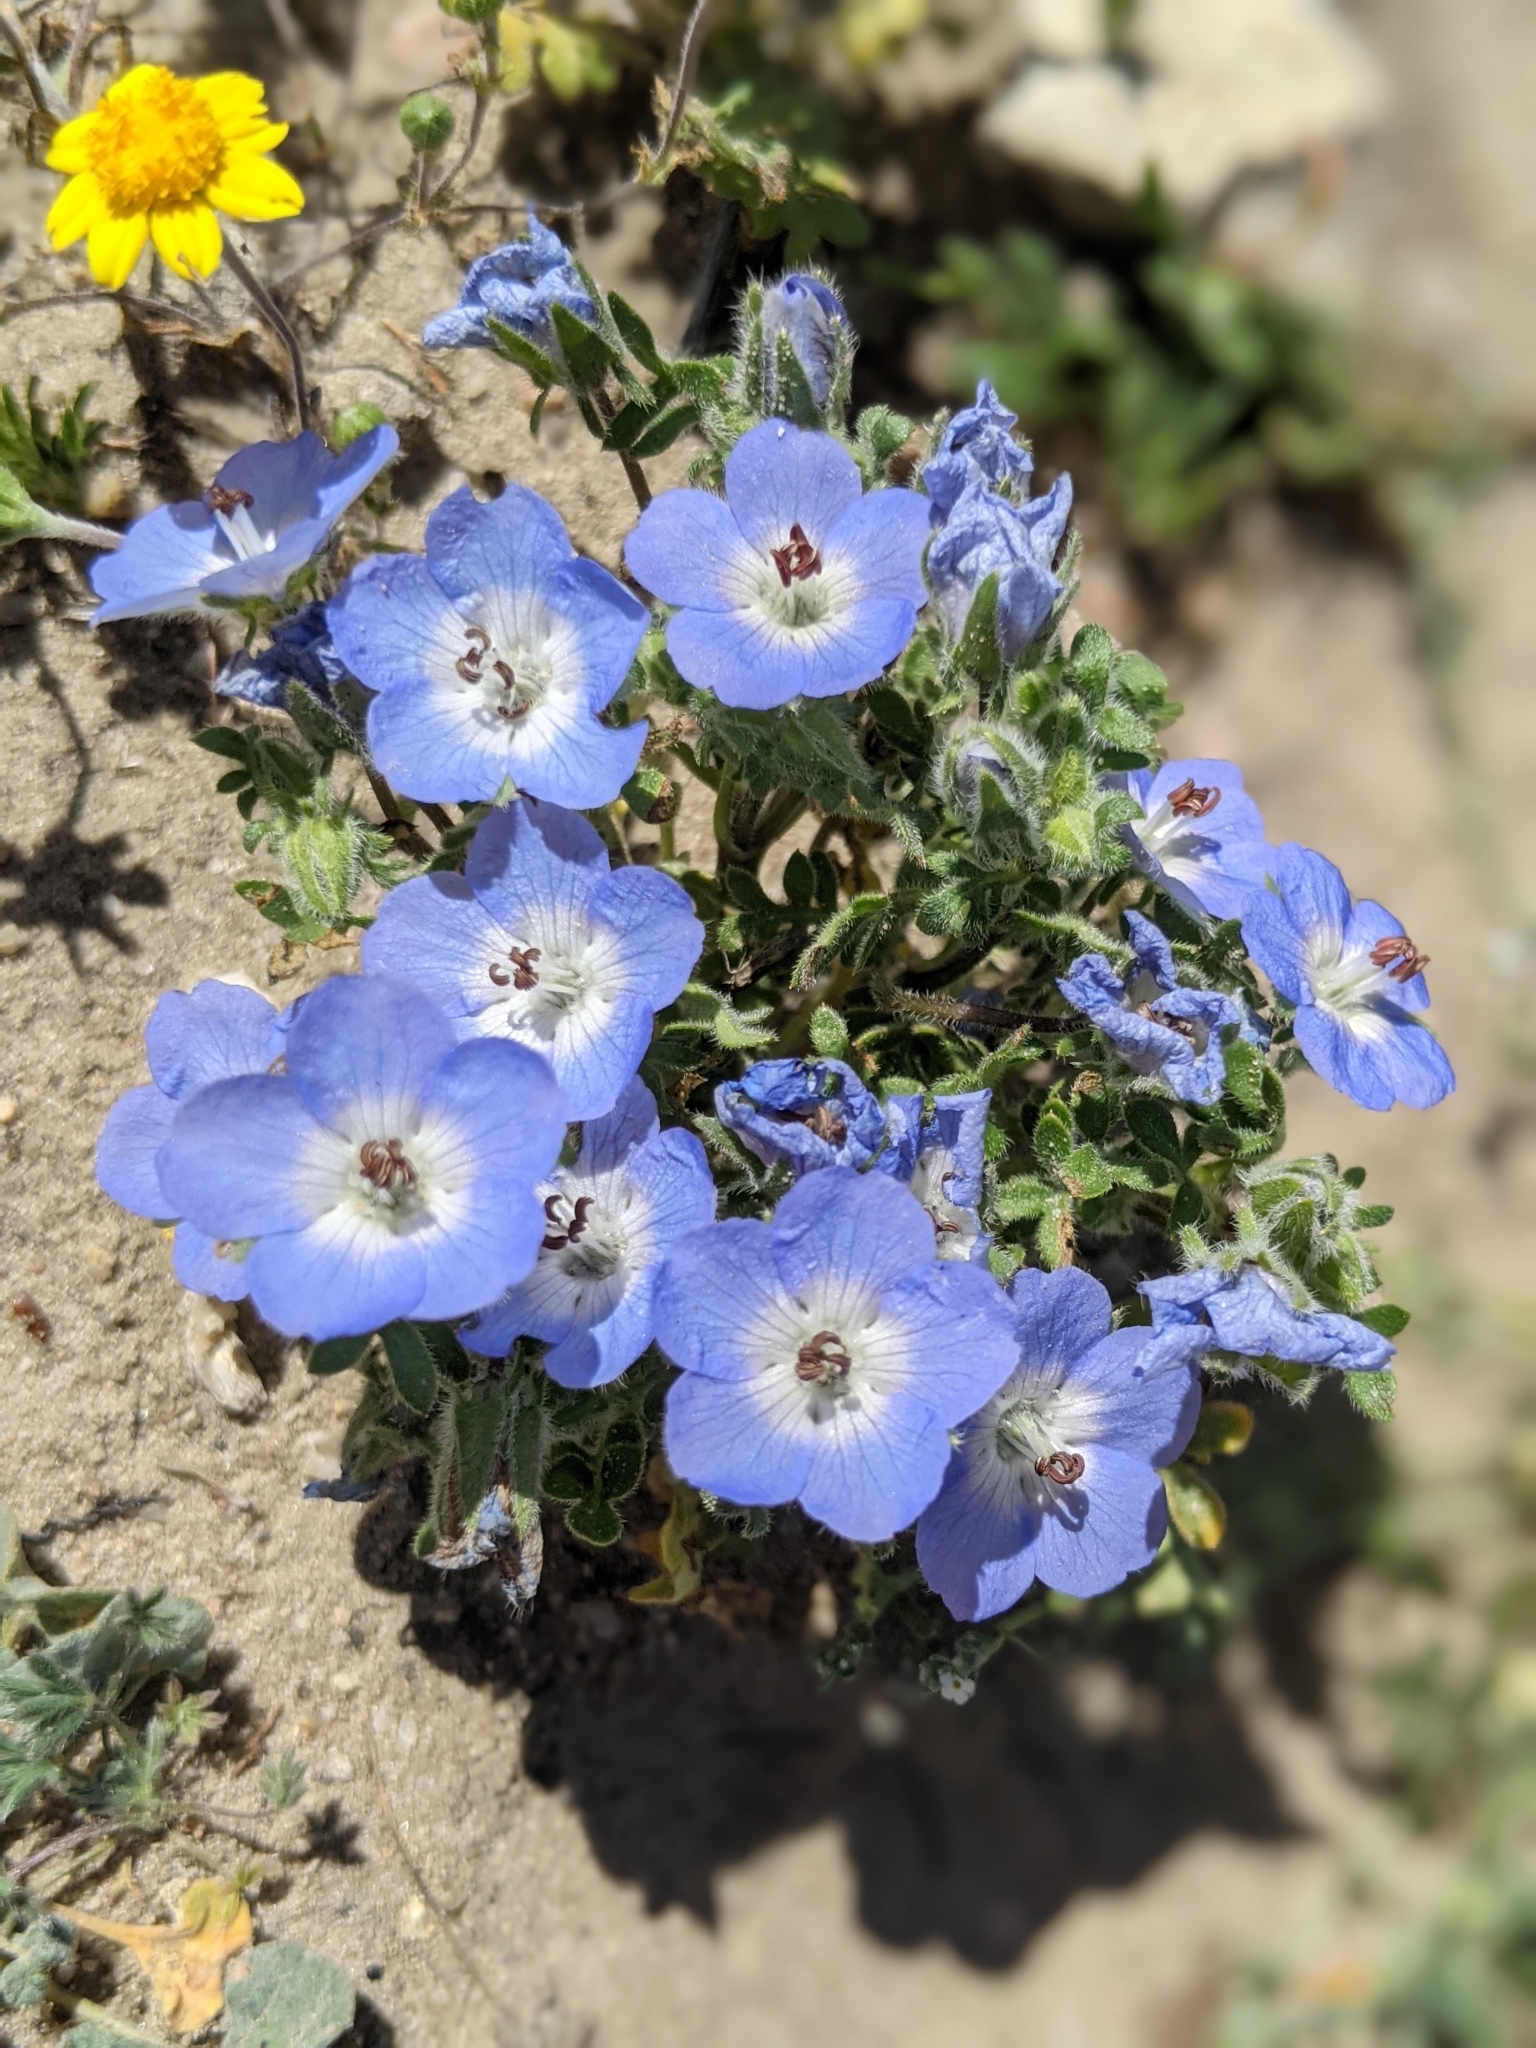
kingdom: Plantae
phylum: Tracheophyta
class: Magnoliopsida
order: Boraginales
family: Hydrophyllaceae
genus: Nemophila
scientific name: Nemophila menziesii
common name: Baby's-blue-eyes
